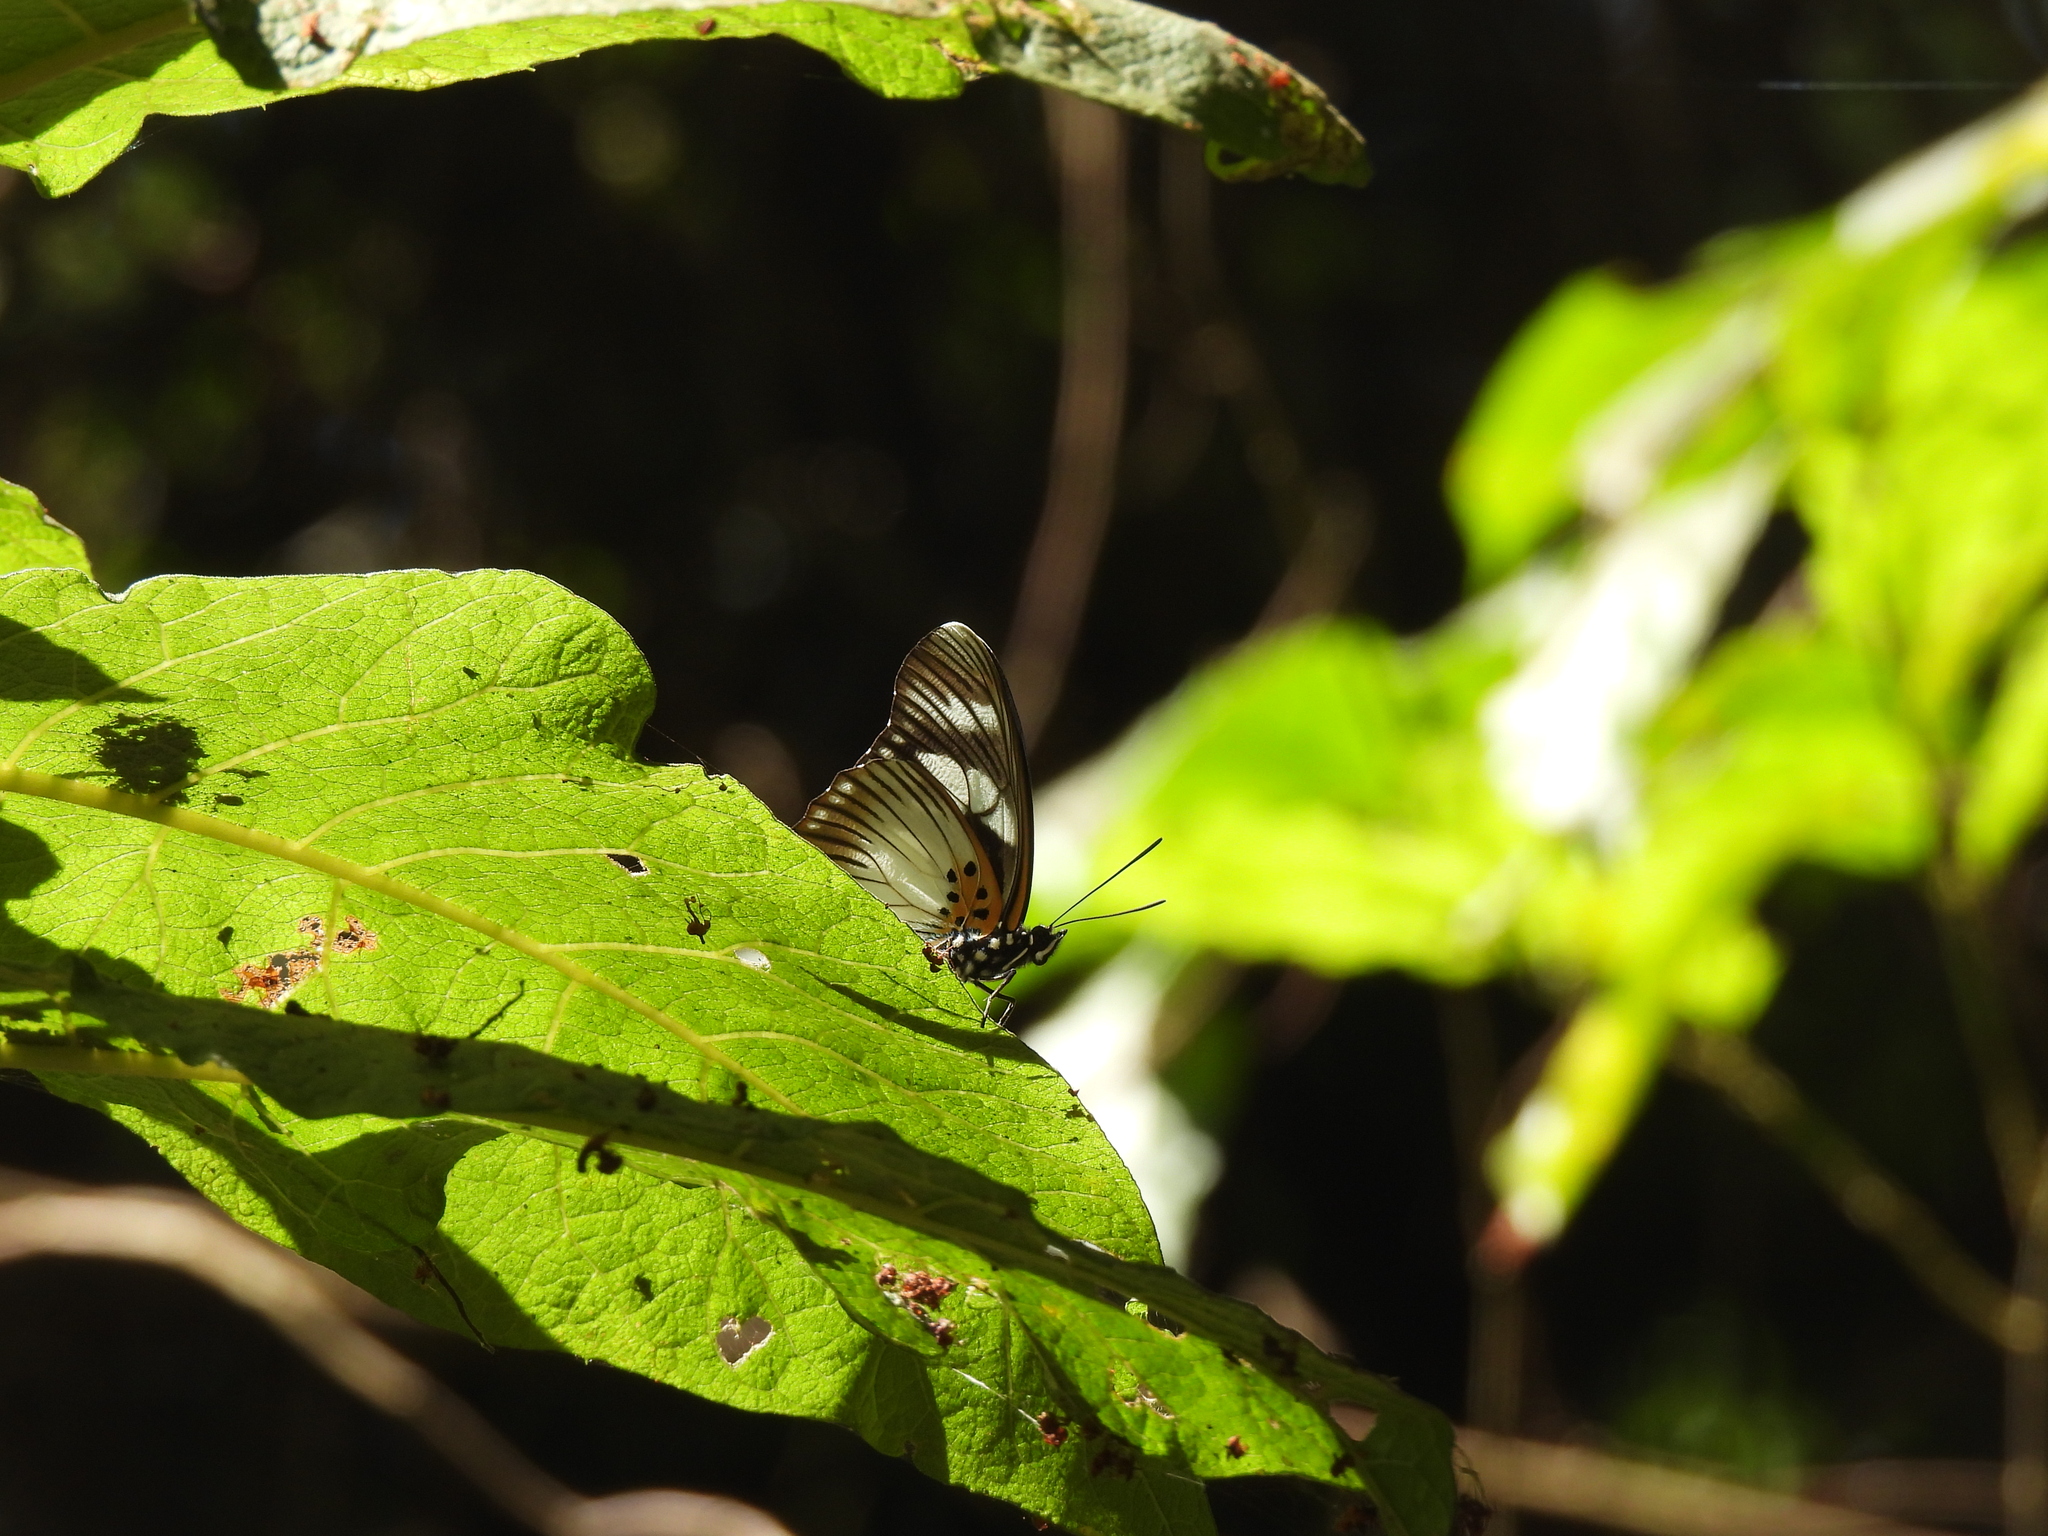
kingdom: Animalia
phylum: Arthropoda
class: Insecta
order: Lepidoptera
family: Nymphalidae
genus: Chloropoea
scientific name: Chloropoea lucretia
